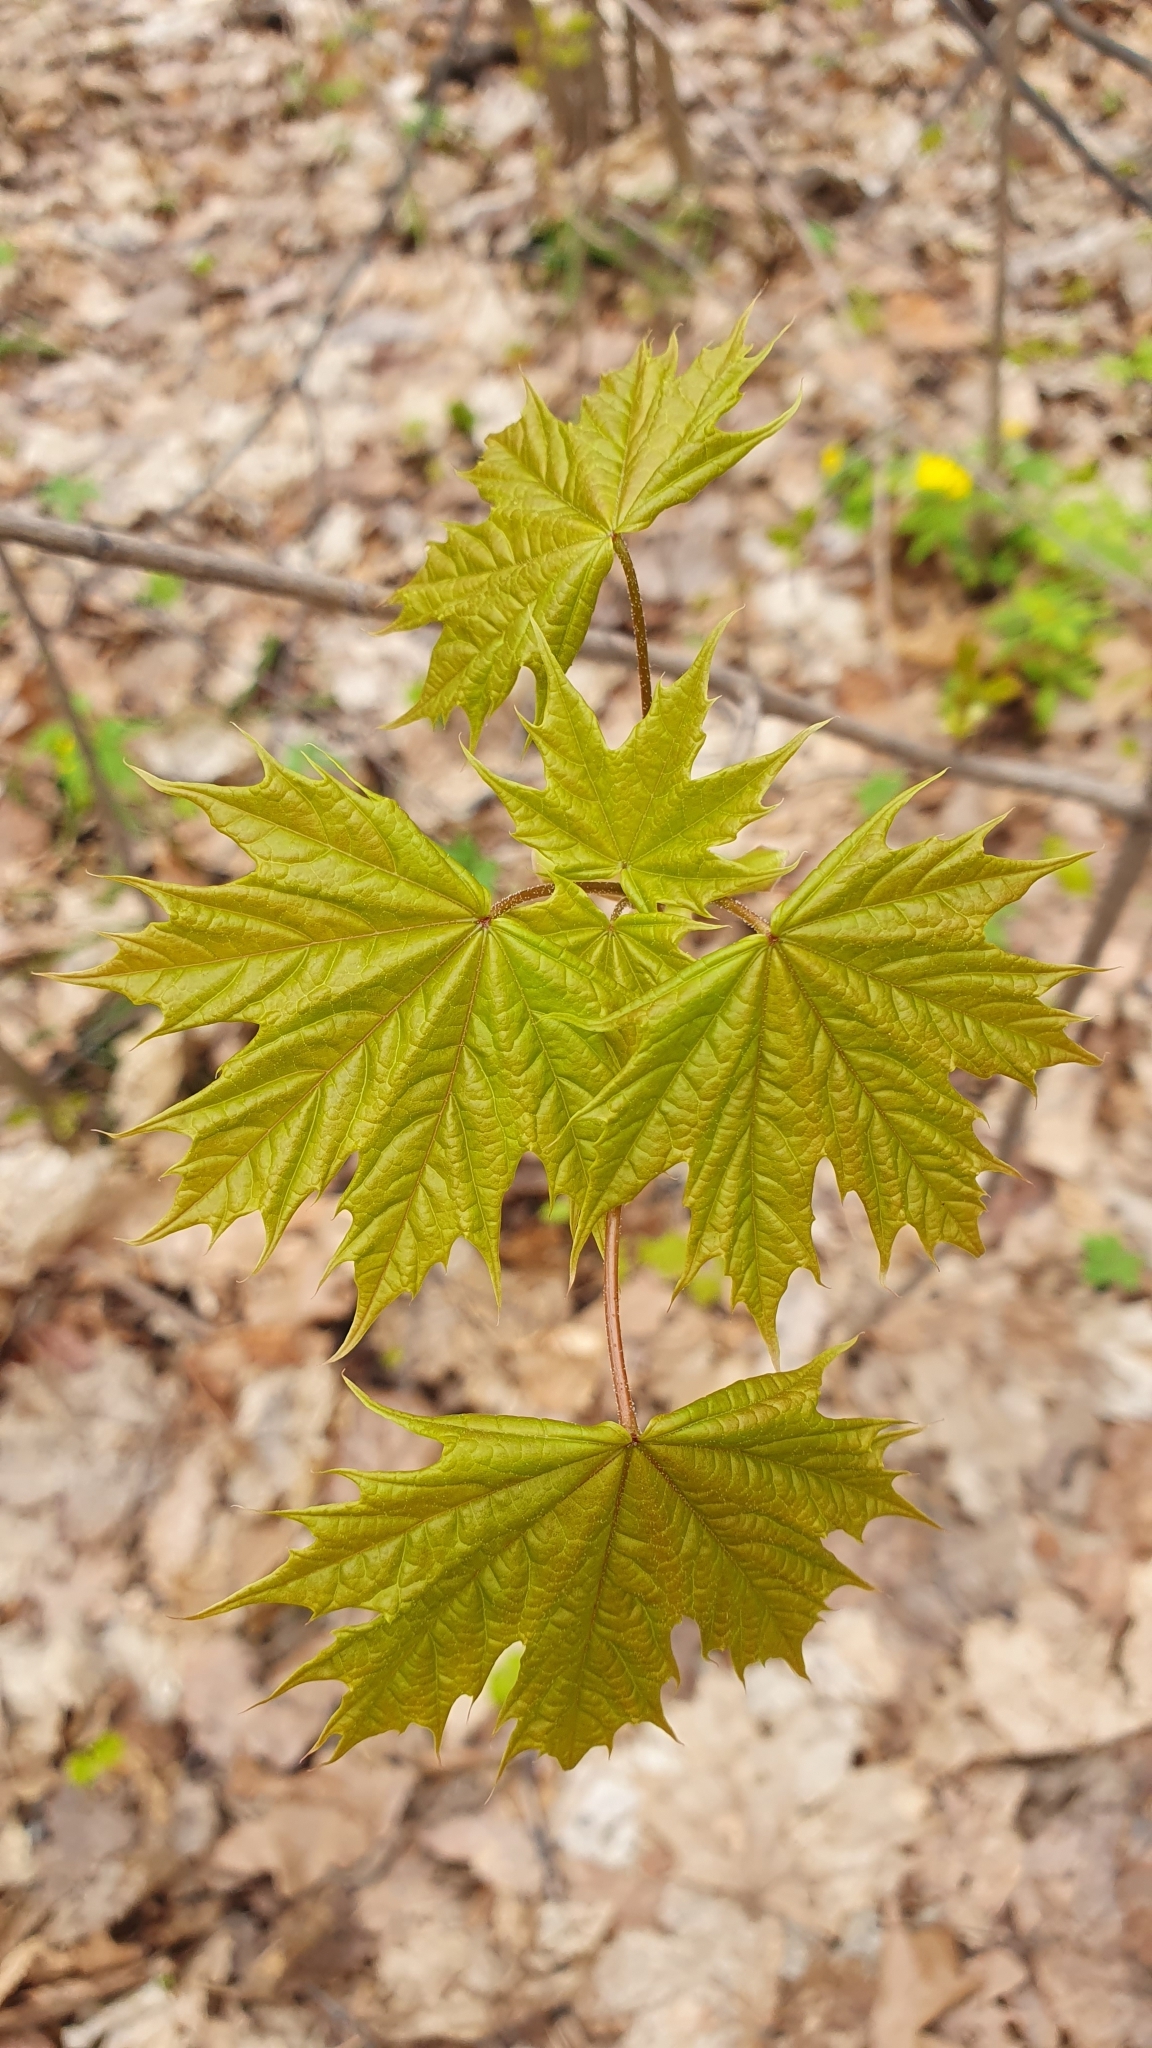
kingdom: Plantae
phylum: Tracheophyta
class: Magnoliopsida
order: Sapindales
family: Sapindaceae
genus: Acer
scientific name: Acer platanoides
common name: Norway maple
